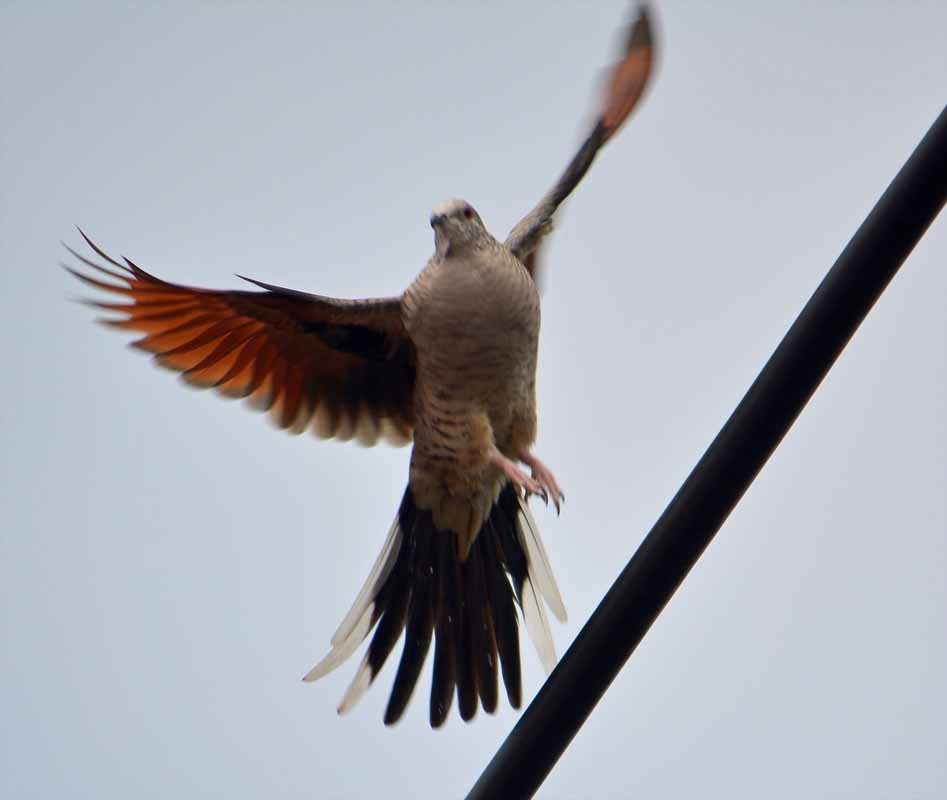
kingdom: Animalia
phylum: Chordata
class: Aves
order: Columbiformes
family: Columbidae
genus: Columbina
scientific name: Columbina inca
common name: Inca dove
